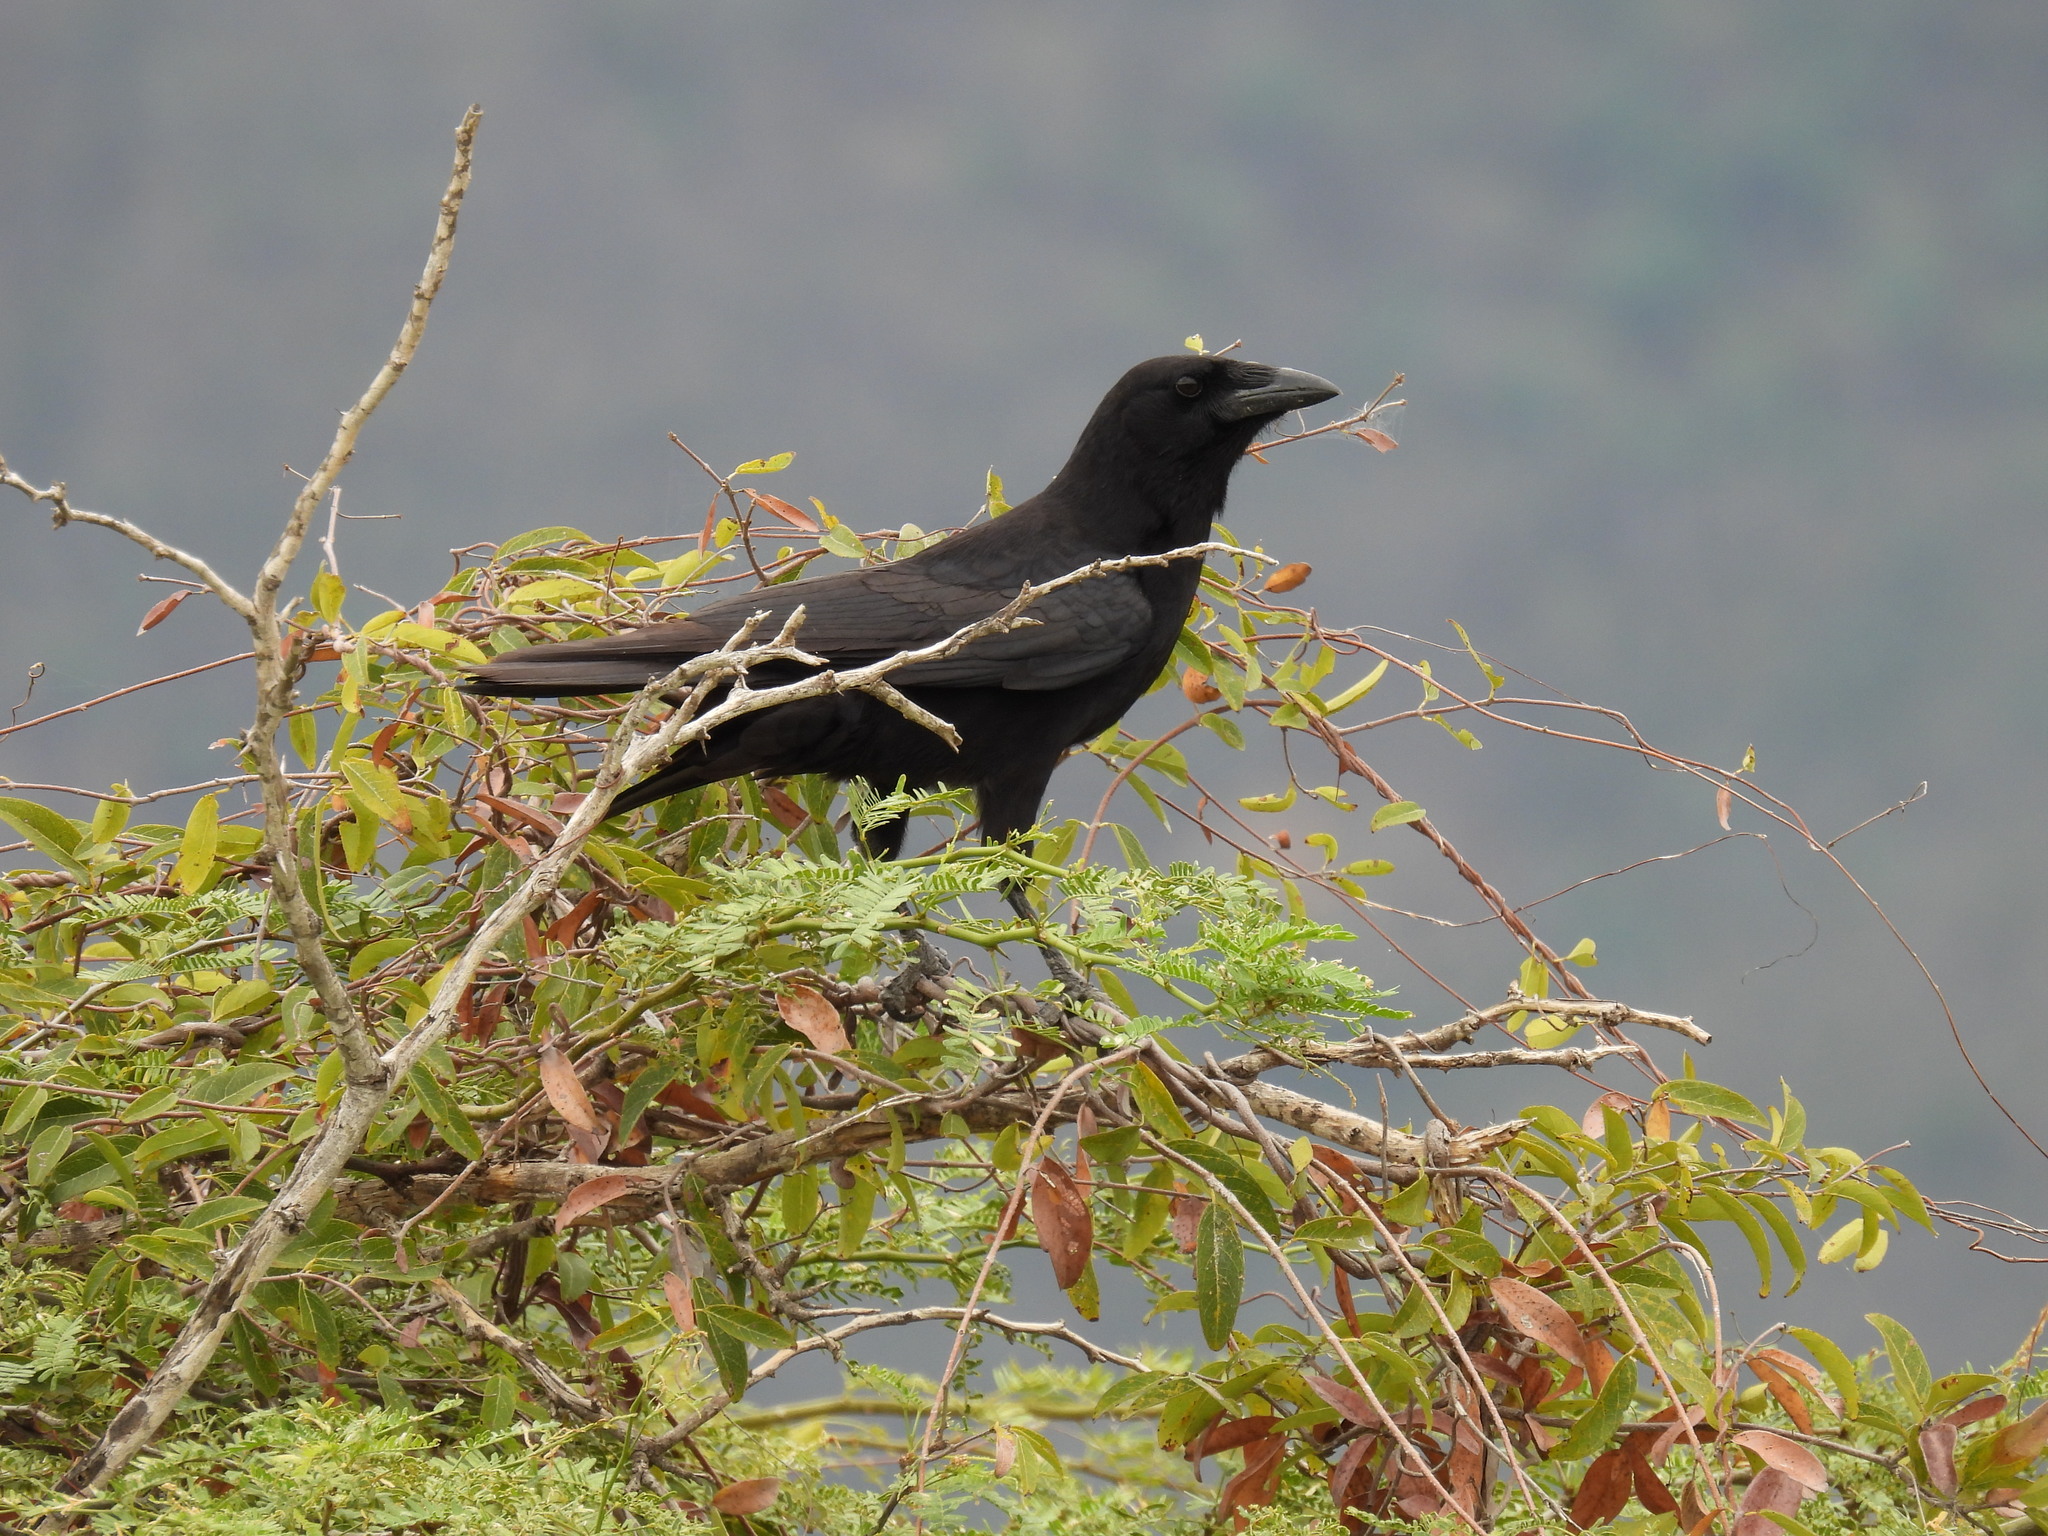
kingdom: Animalia
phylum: Chordata
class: Aves
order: Passeriformes
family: Corvidae
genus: Corvus
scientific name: Corvus palmarum
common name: Palm crow
